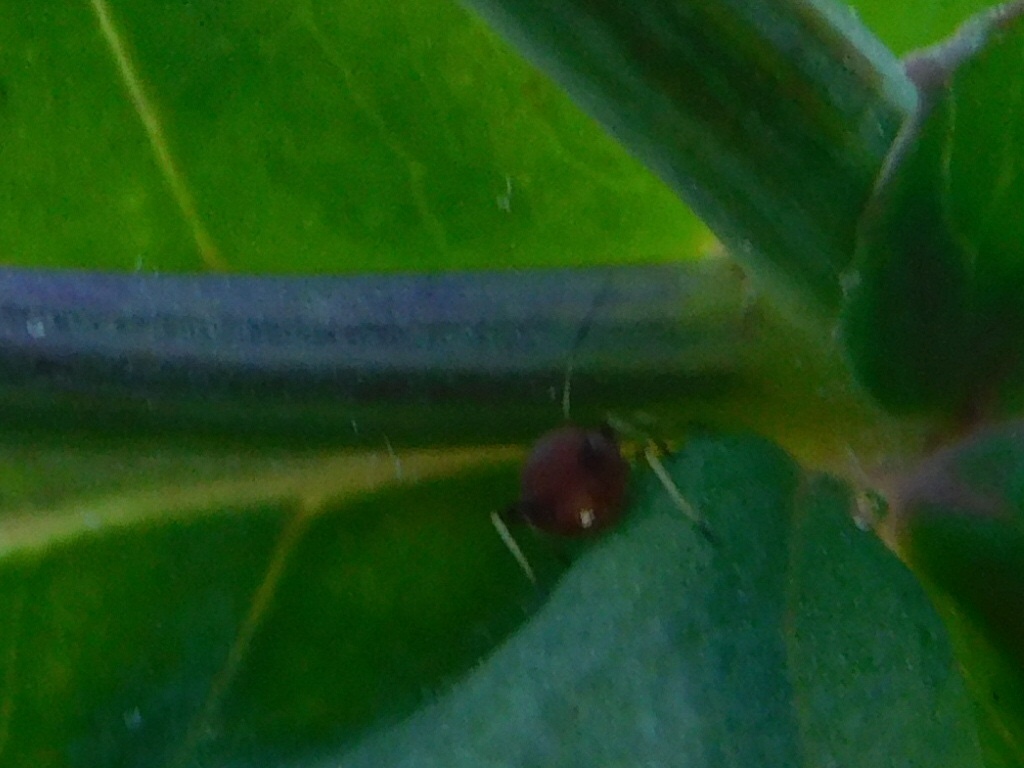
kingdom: Animalia
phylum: Arthropoda
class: Insecta
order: Hemiptera
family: Aphididae
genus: Hysteroneura
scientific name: Hysteroneura setariae
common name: Rusty plum aphid
